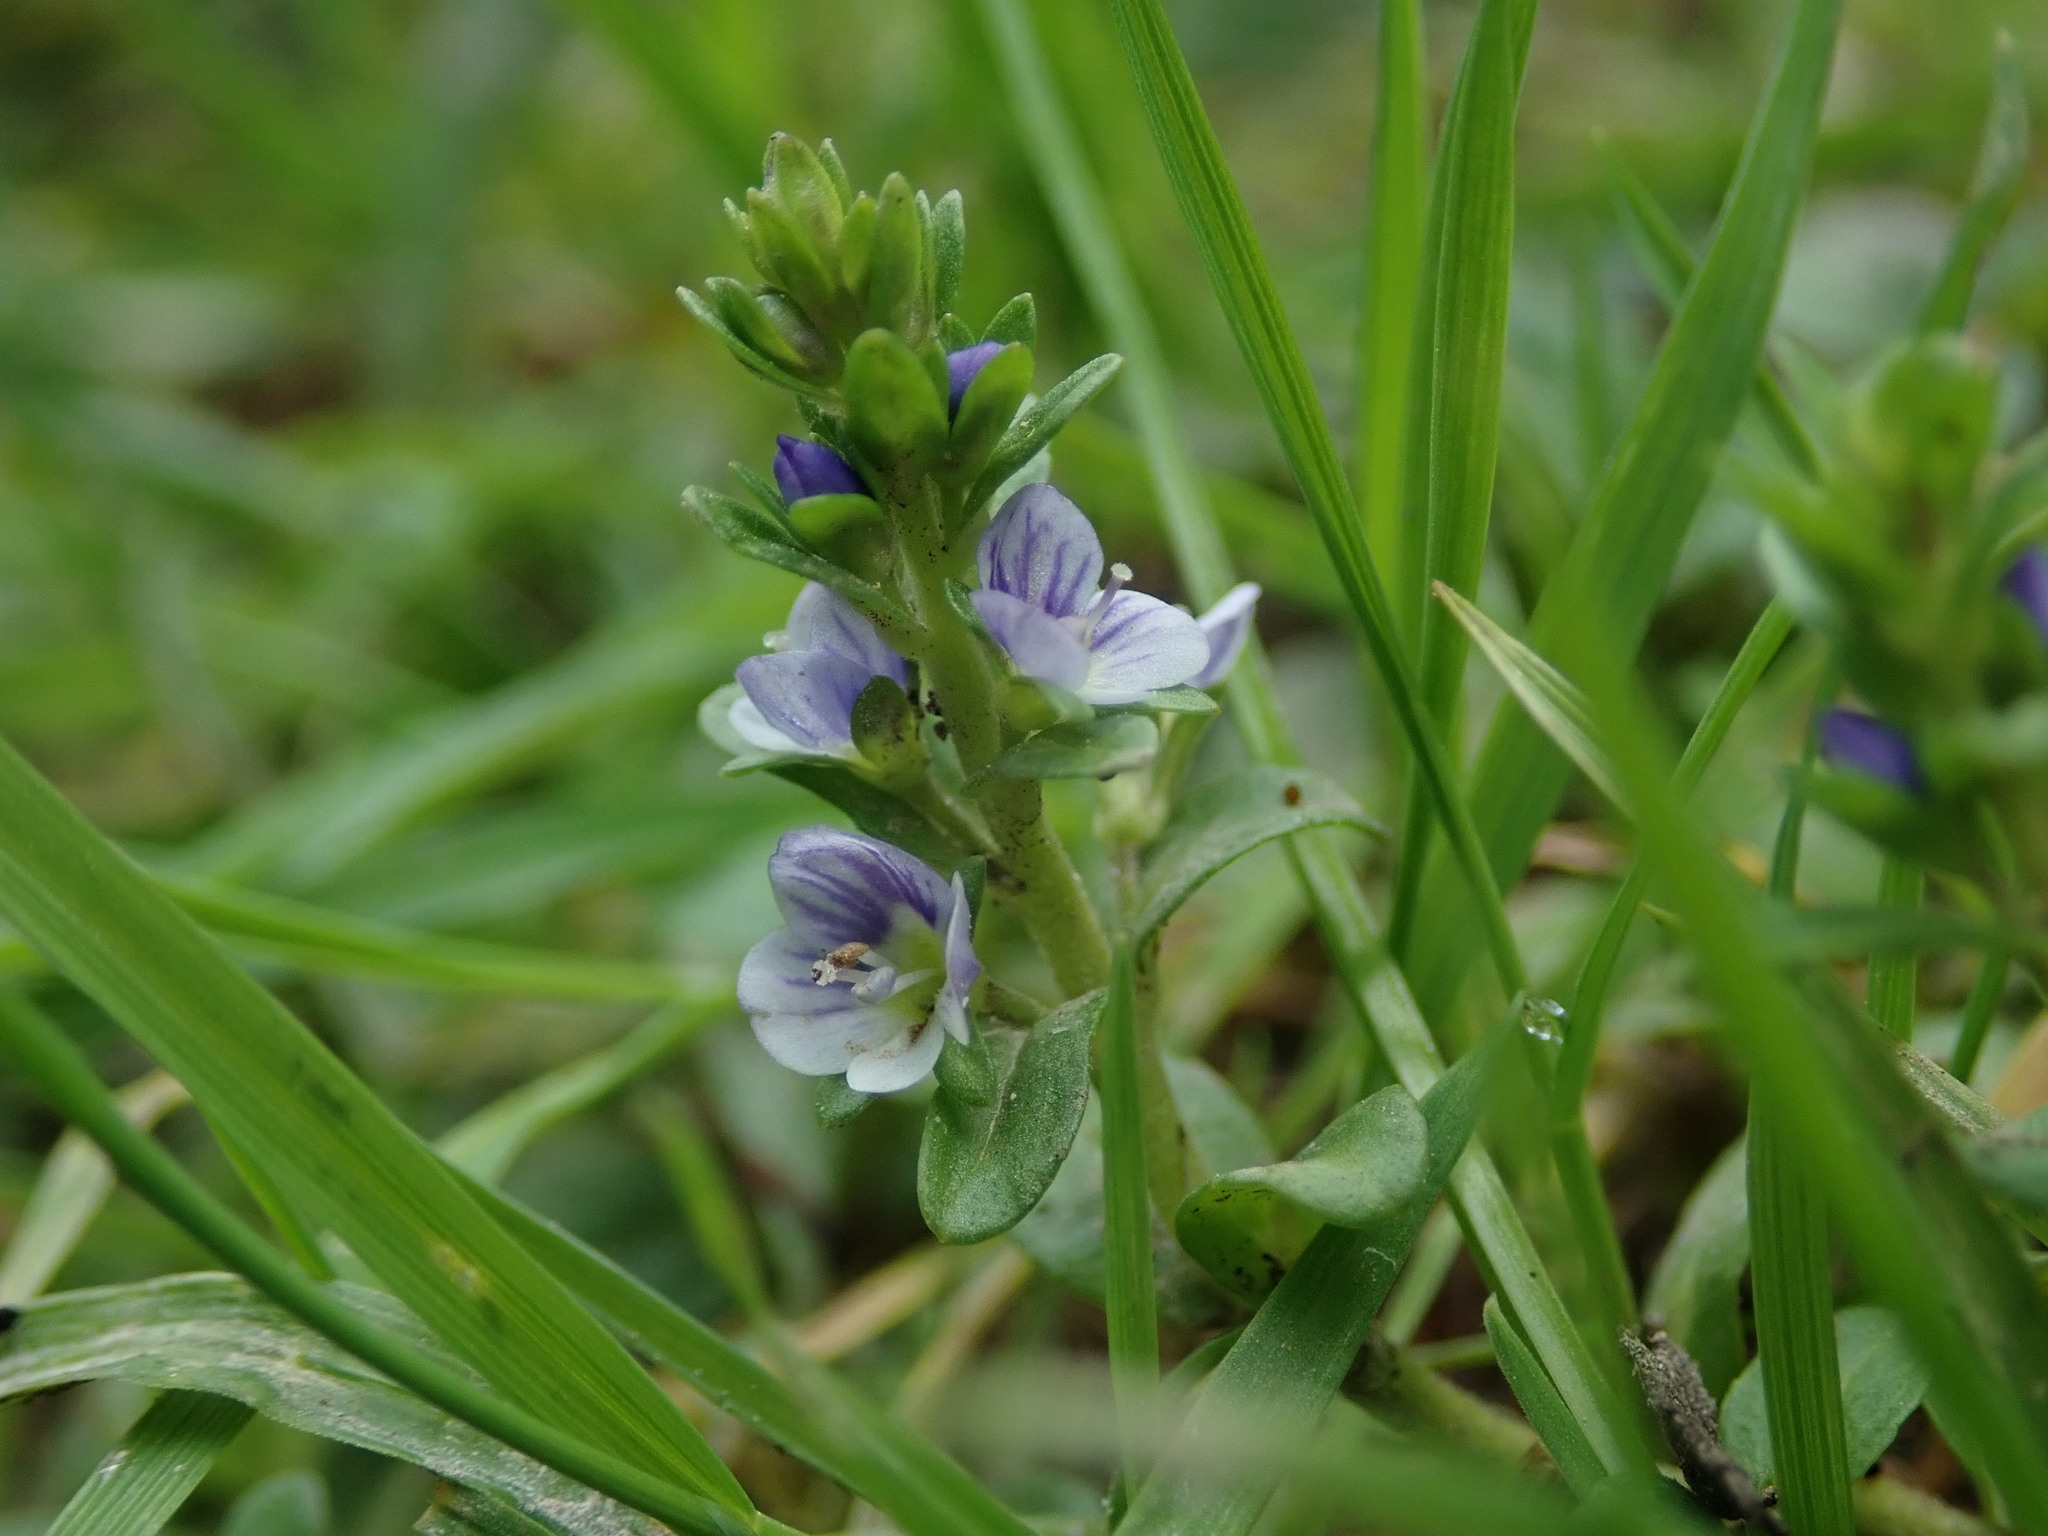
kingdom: Plantae
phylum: Tracheophyta
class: Magnoliopsida
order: Lamiales
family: Plantaginaceae
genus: Veronica
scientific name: Veronica serpyllifolia
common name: Thyme-leaved speedwell
